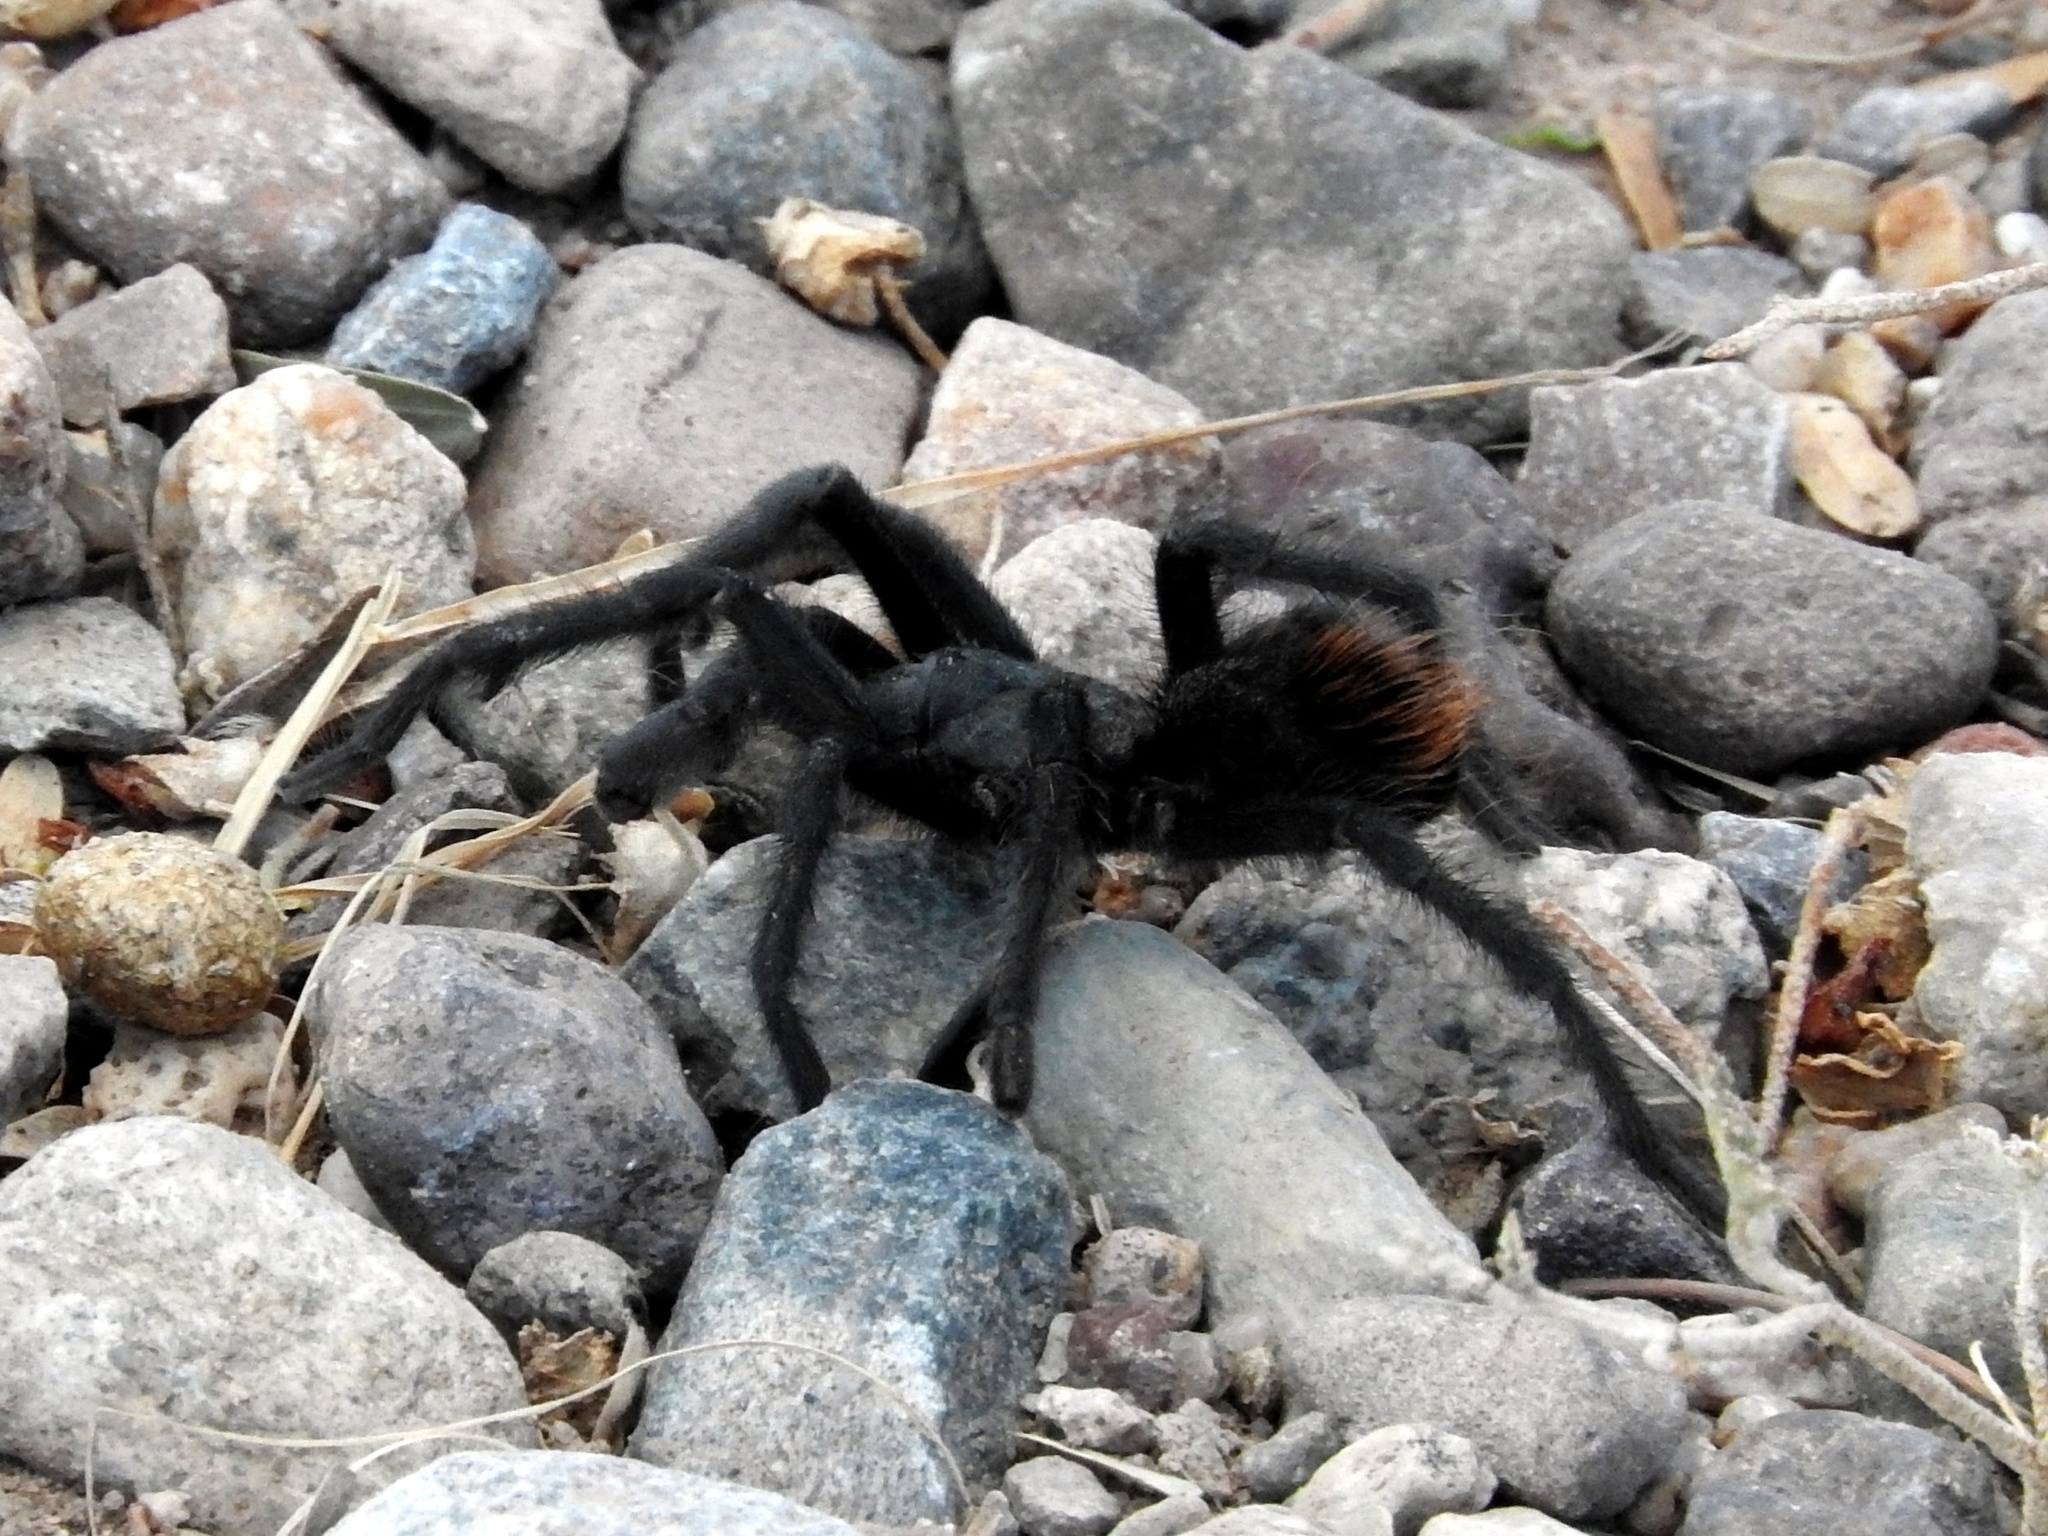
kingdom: Animalia
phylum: Arthropoda
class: Arachnida
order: Araneae
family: Theraphosidae
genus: Aphonopelma
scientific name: Aphonopelma vorhiesi
